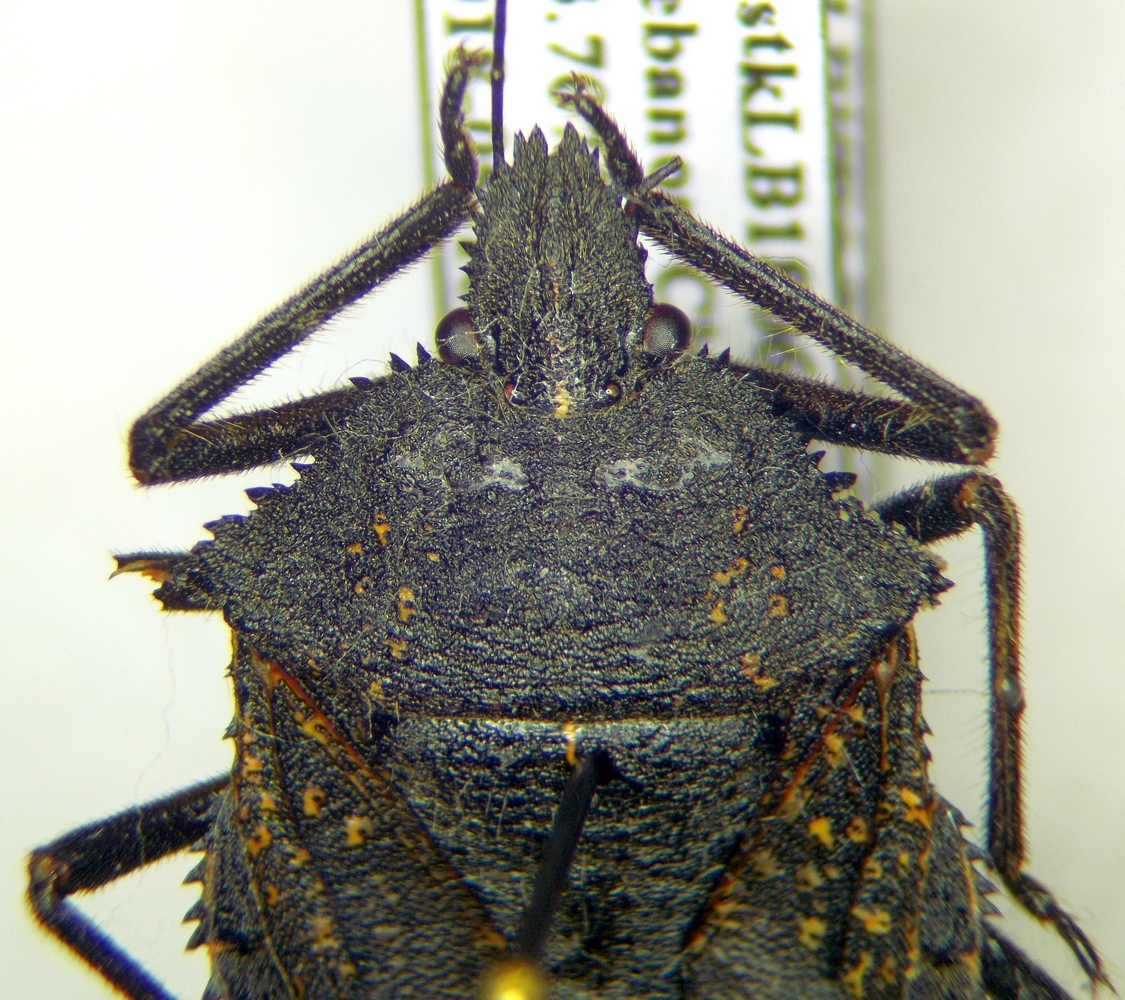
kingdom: Animalia
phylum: Arthropoda
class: Insecta
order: Hemiptera
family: Pentatomidae
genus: Mustha
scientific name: Mustha spinosula
